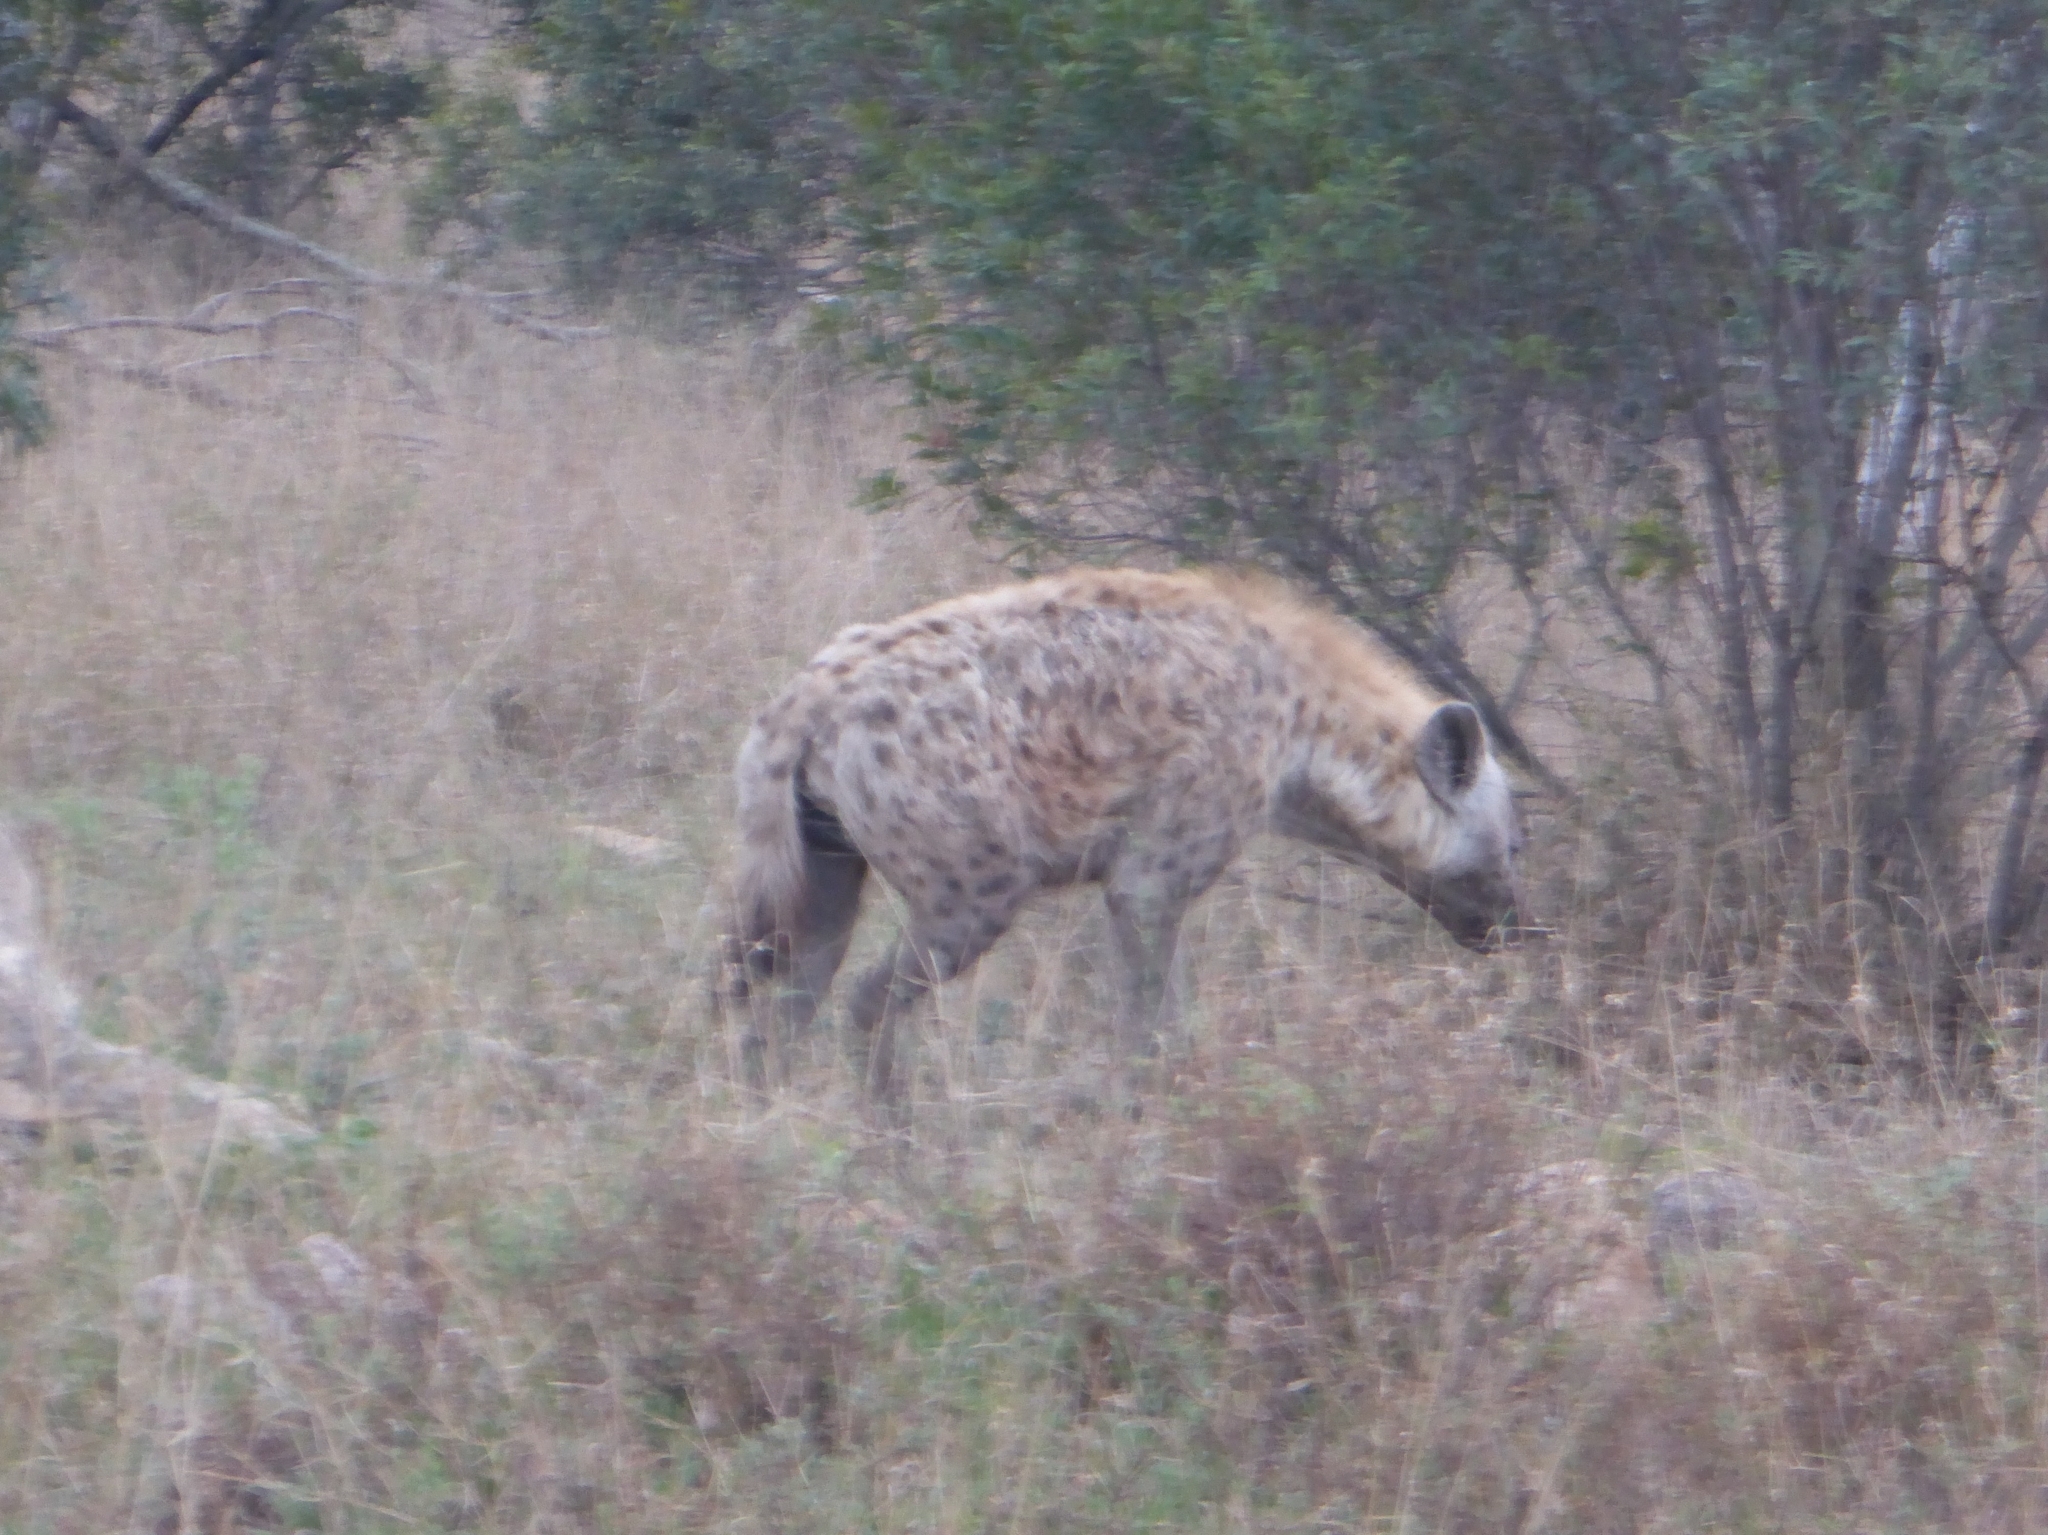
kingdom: Animalia
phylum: Chordata
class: Mammalia
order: Carnivora
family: Hyaenidae
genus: Crocuta
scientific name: Crocuta crocuta
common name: Spotted hyaena
